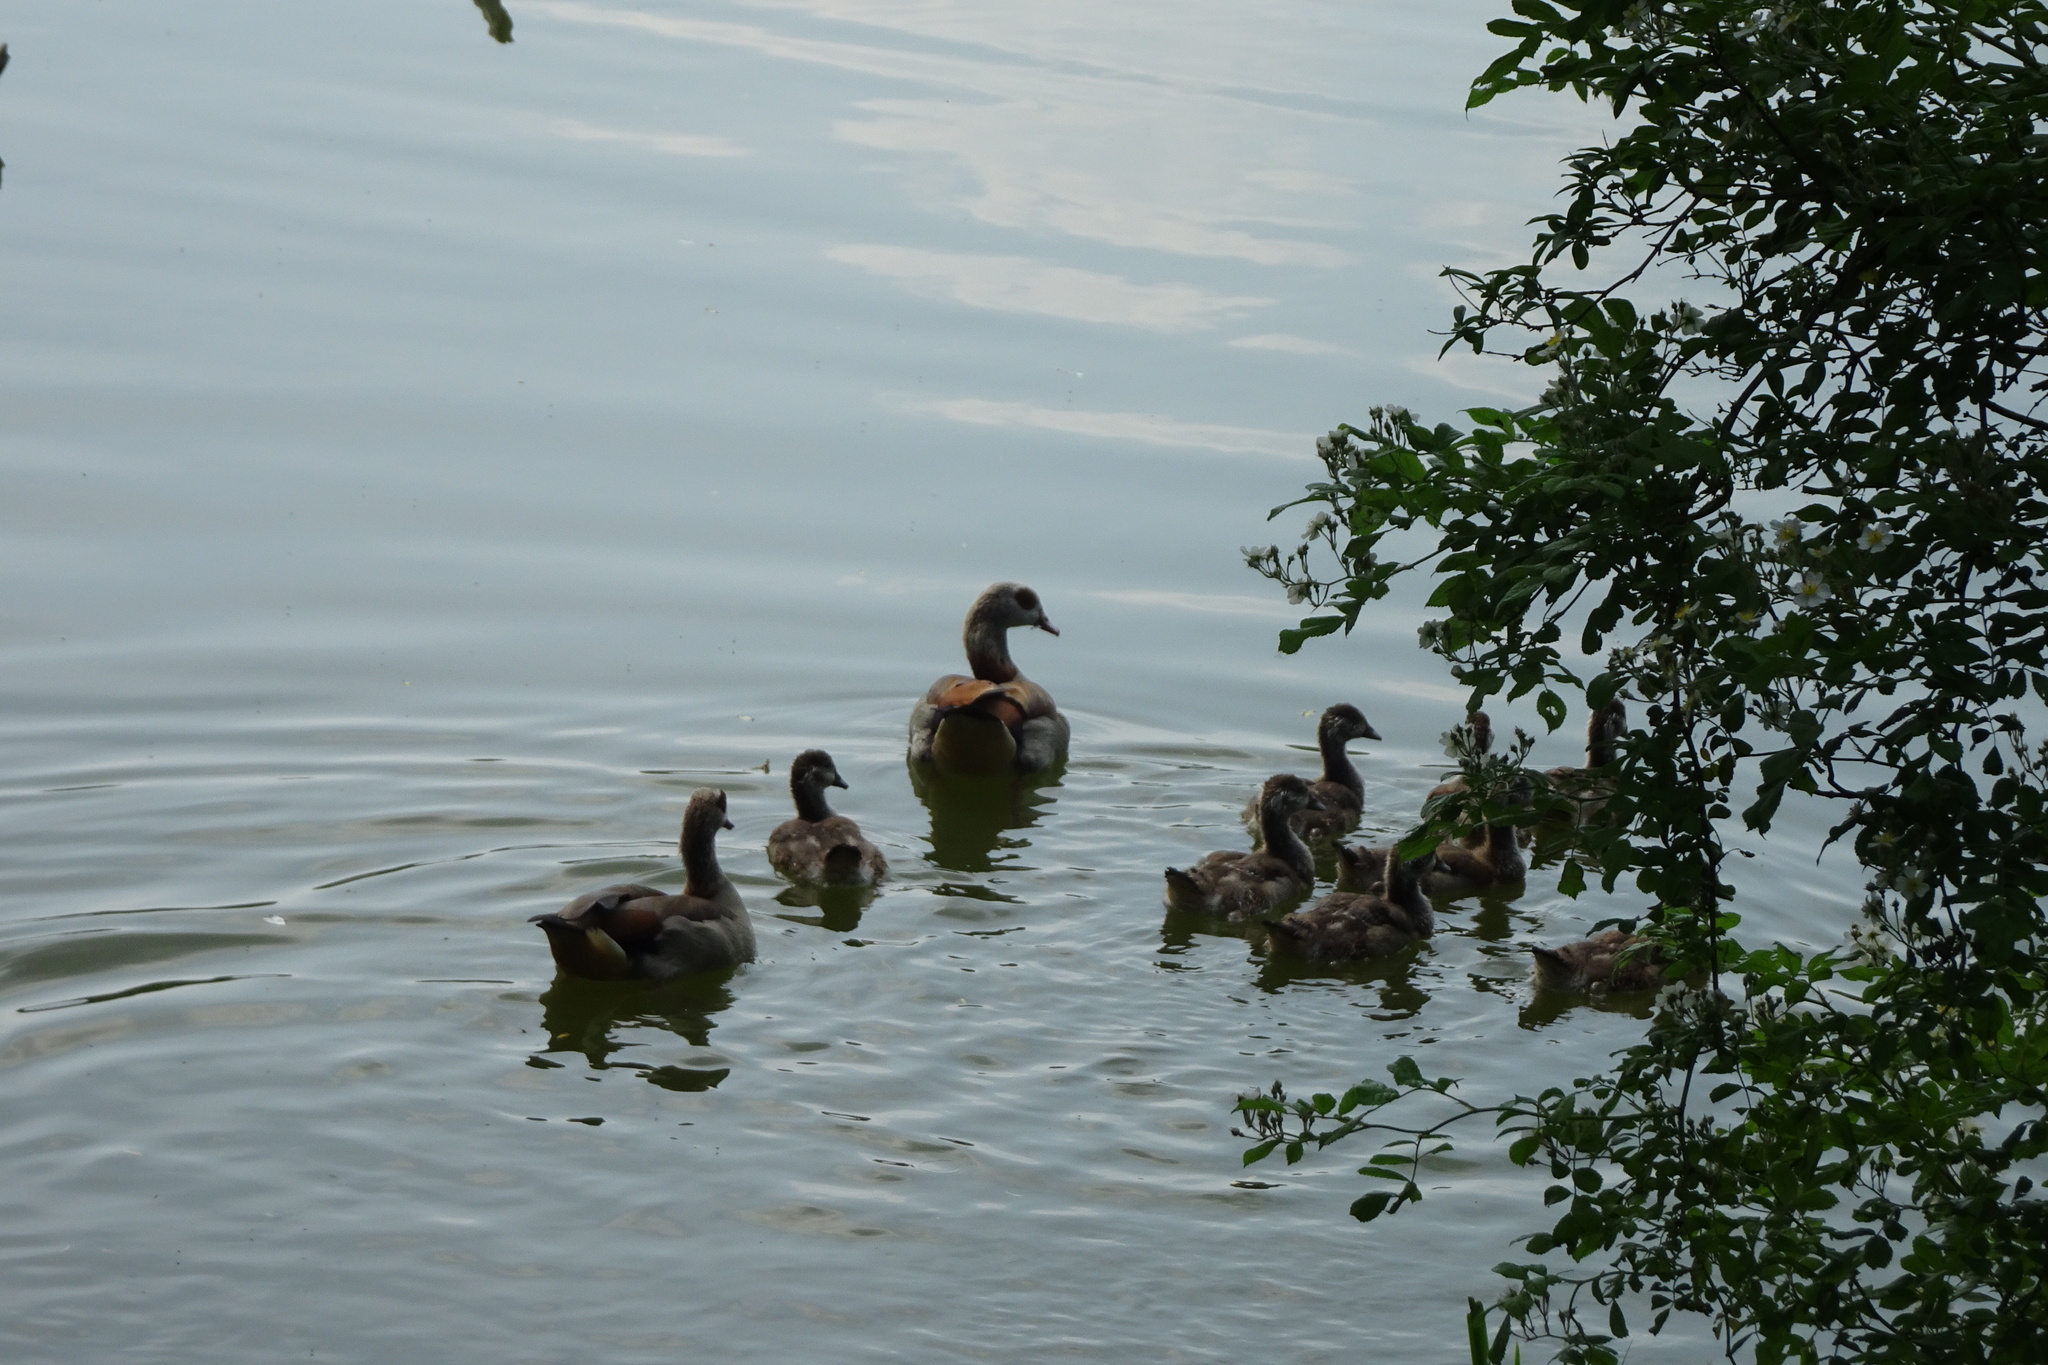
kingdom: Animalia
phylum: Chordata
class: Aves
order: Anseriformes
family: Anatidae
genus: Alopochen
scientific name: Alopochen aegyptiaca
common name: Egyptian goose
